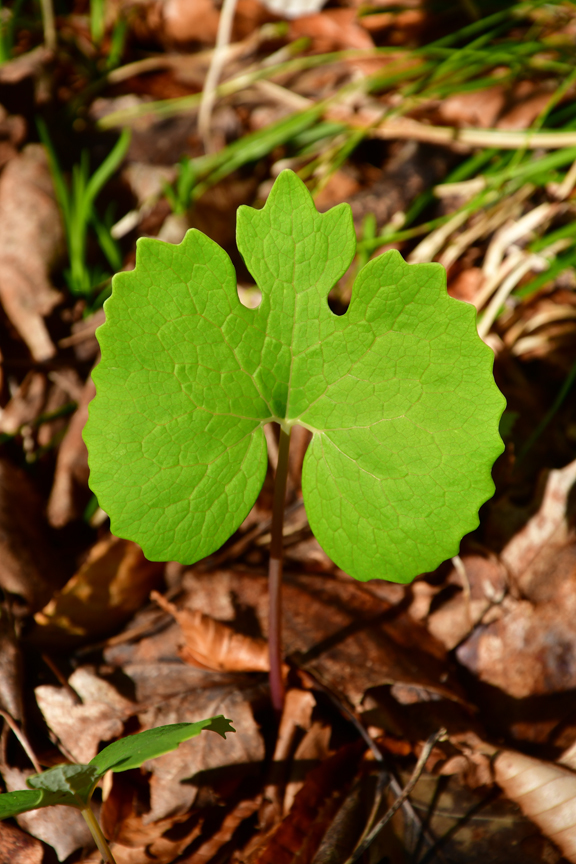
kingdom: Plantae
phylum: Tracheophyta
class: Magnoliopsida
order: Ranunculales
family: Papaveraceae
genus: Sanguinaria
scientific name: Sanguinaria canadensis
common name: Bloodroot
